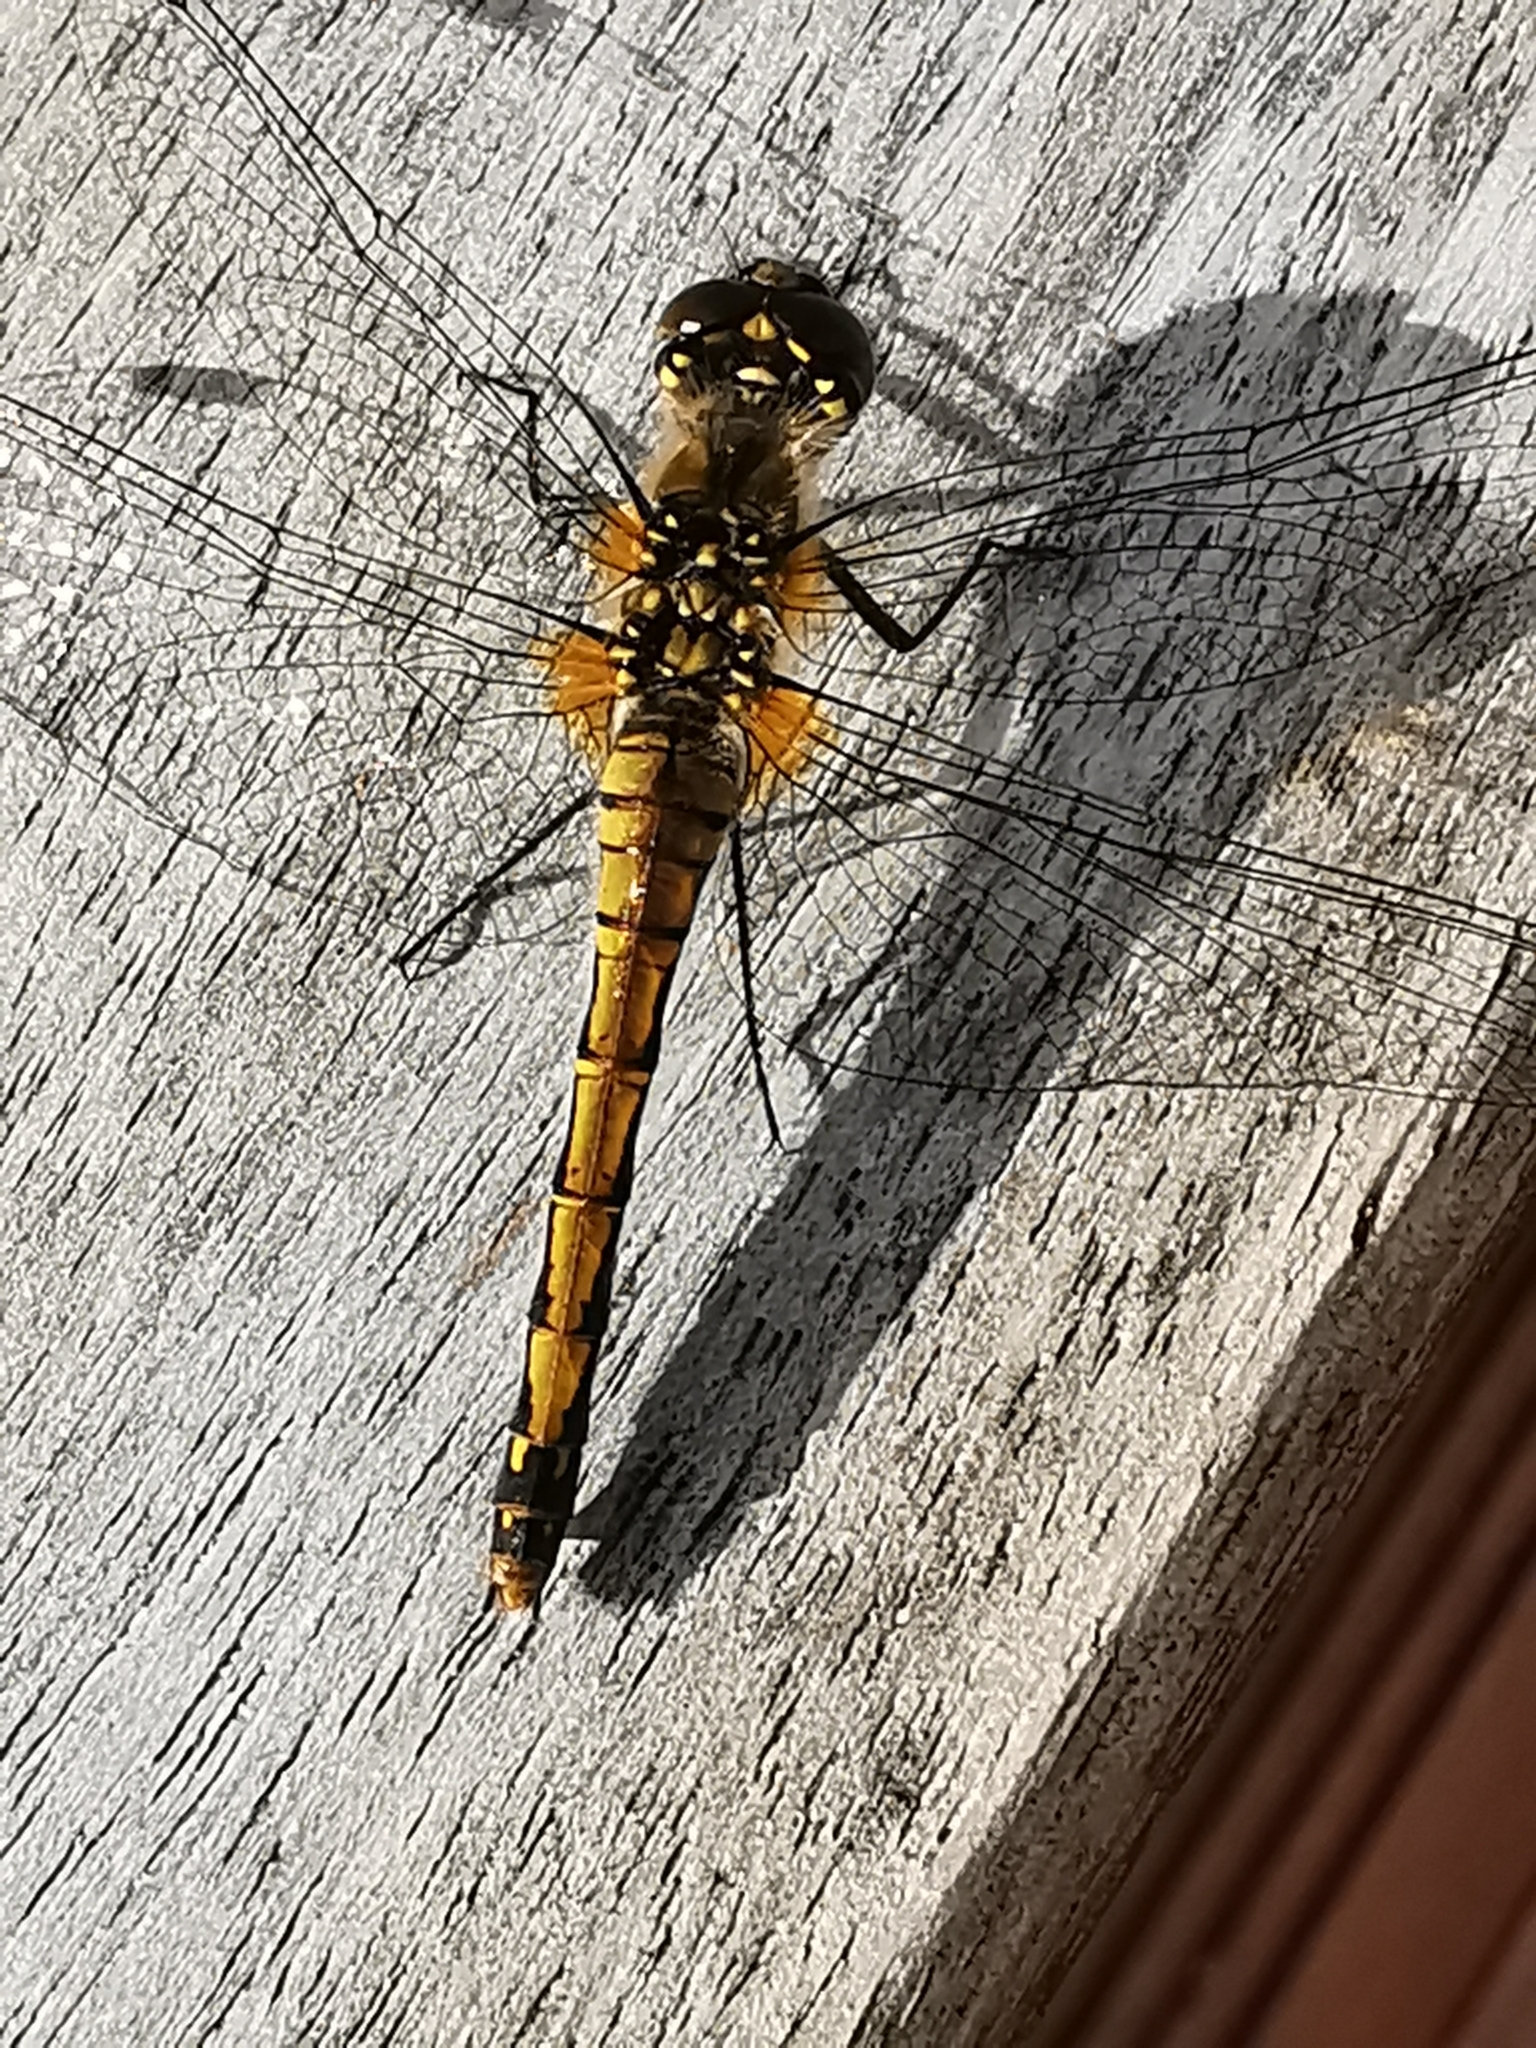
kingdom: Animalia
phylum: Arthropoda
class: Insecta
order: Odonata
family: Libellulidae
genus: Sympetrum
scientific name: Sympetrum danae
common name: Black darter
